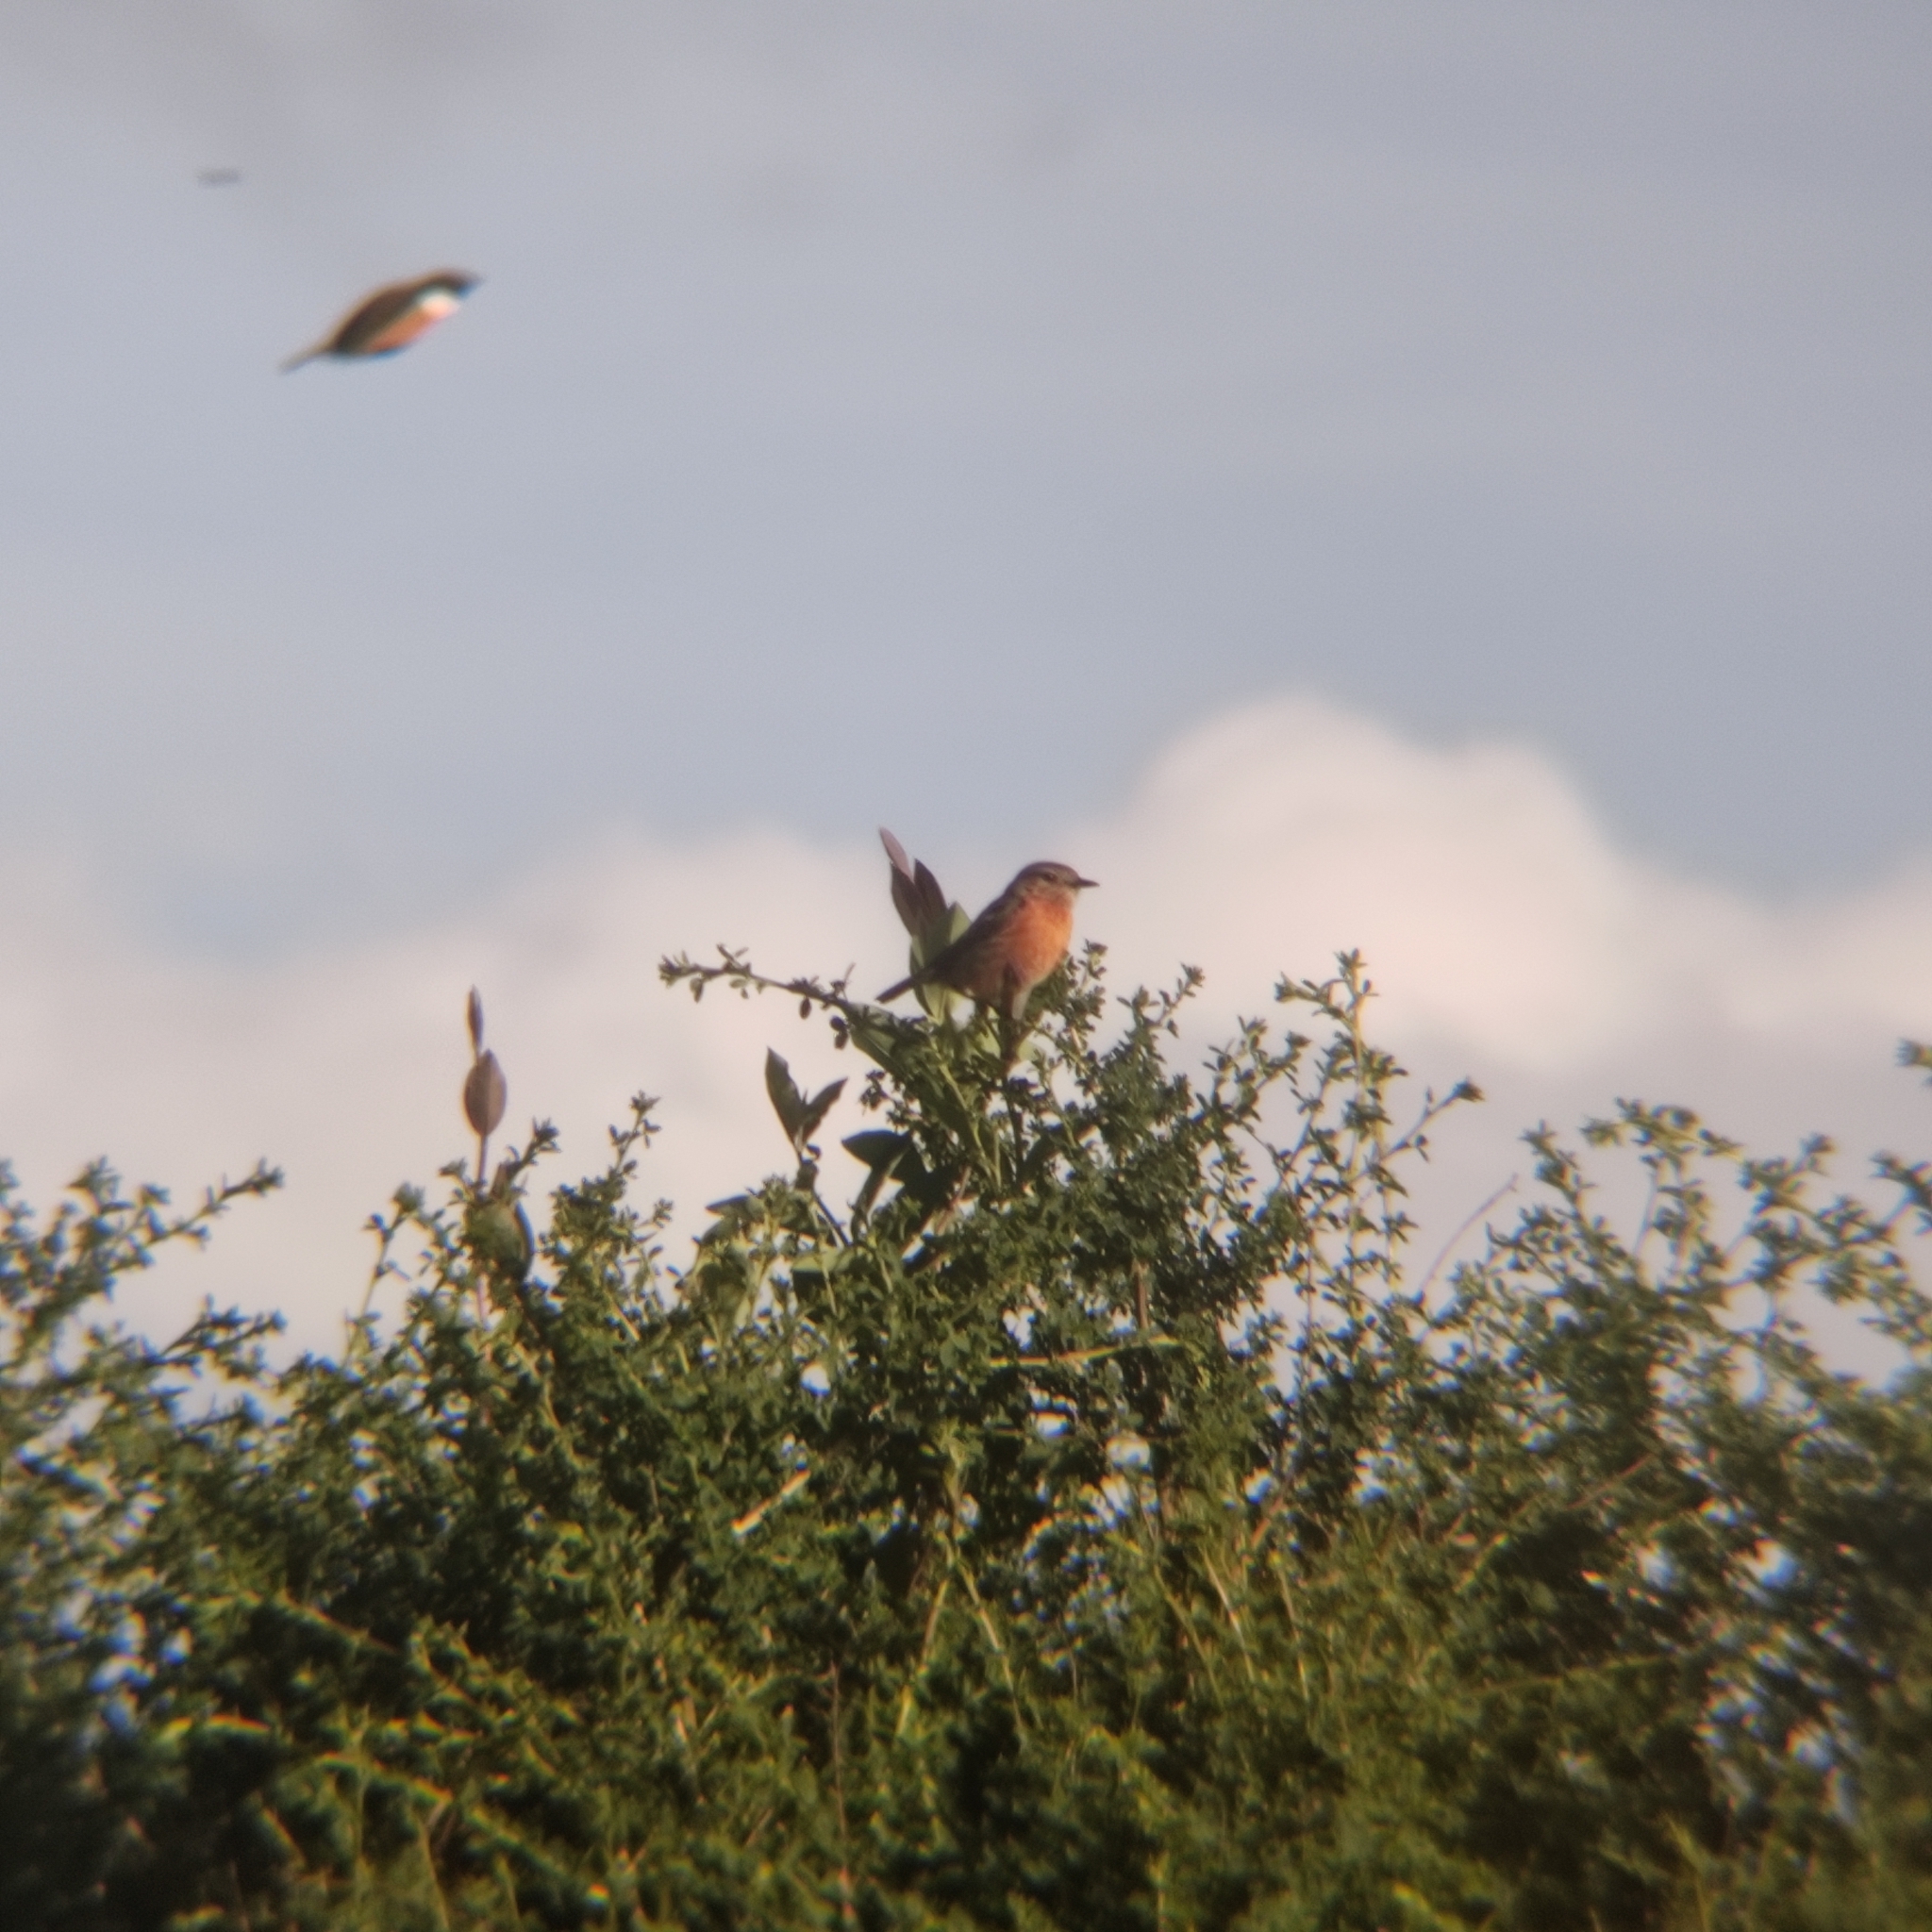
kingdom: Animalia
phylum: Chordata
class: Aves
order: Passeriformes
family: Muscicapidae
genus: Saxicola
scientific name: Saxicola rubicola
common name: European stonechat
